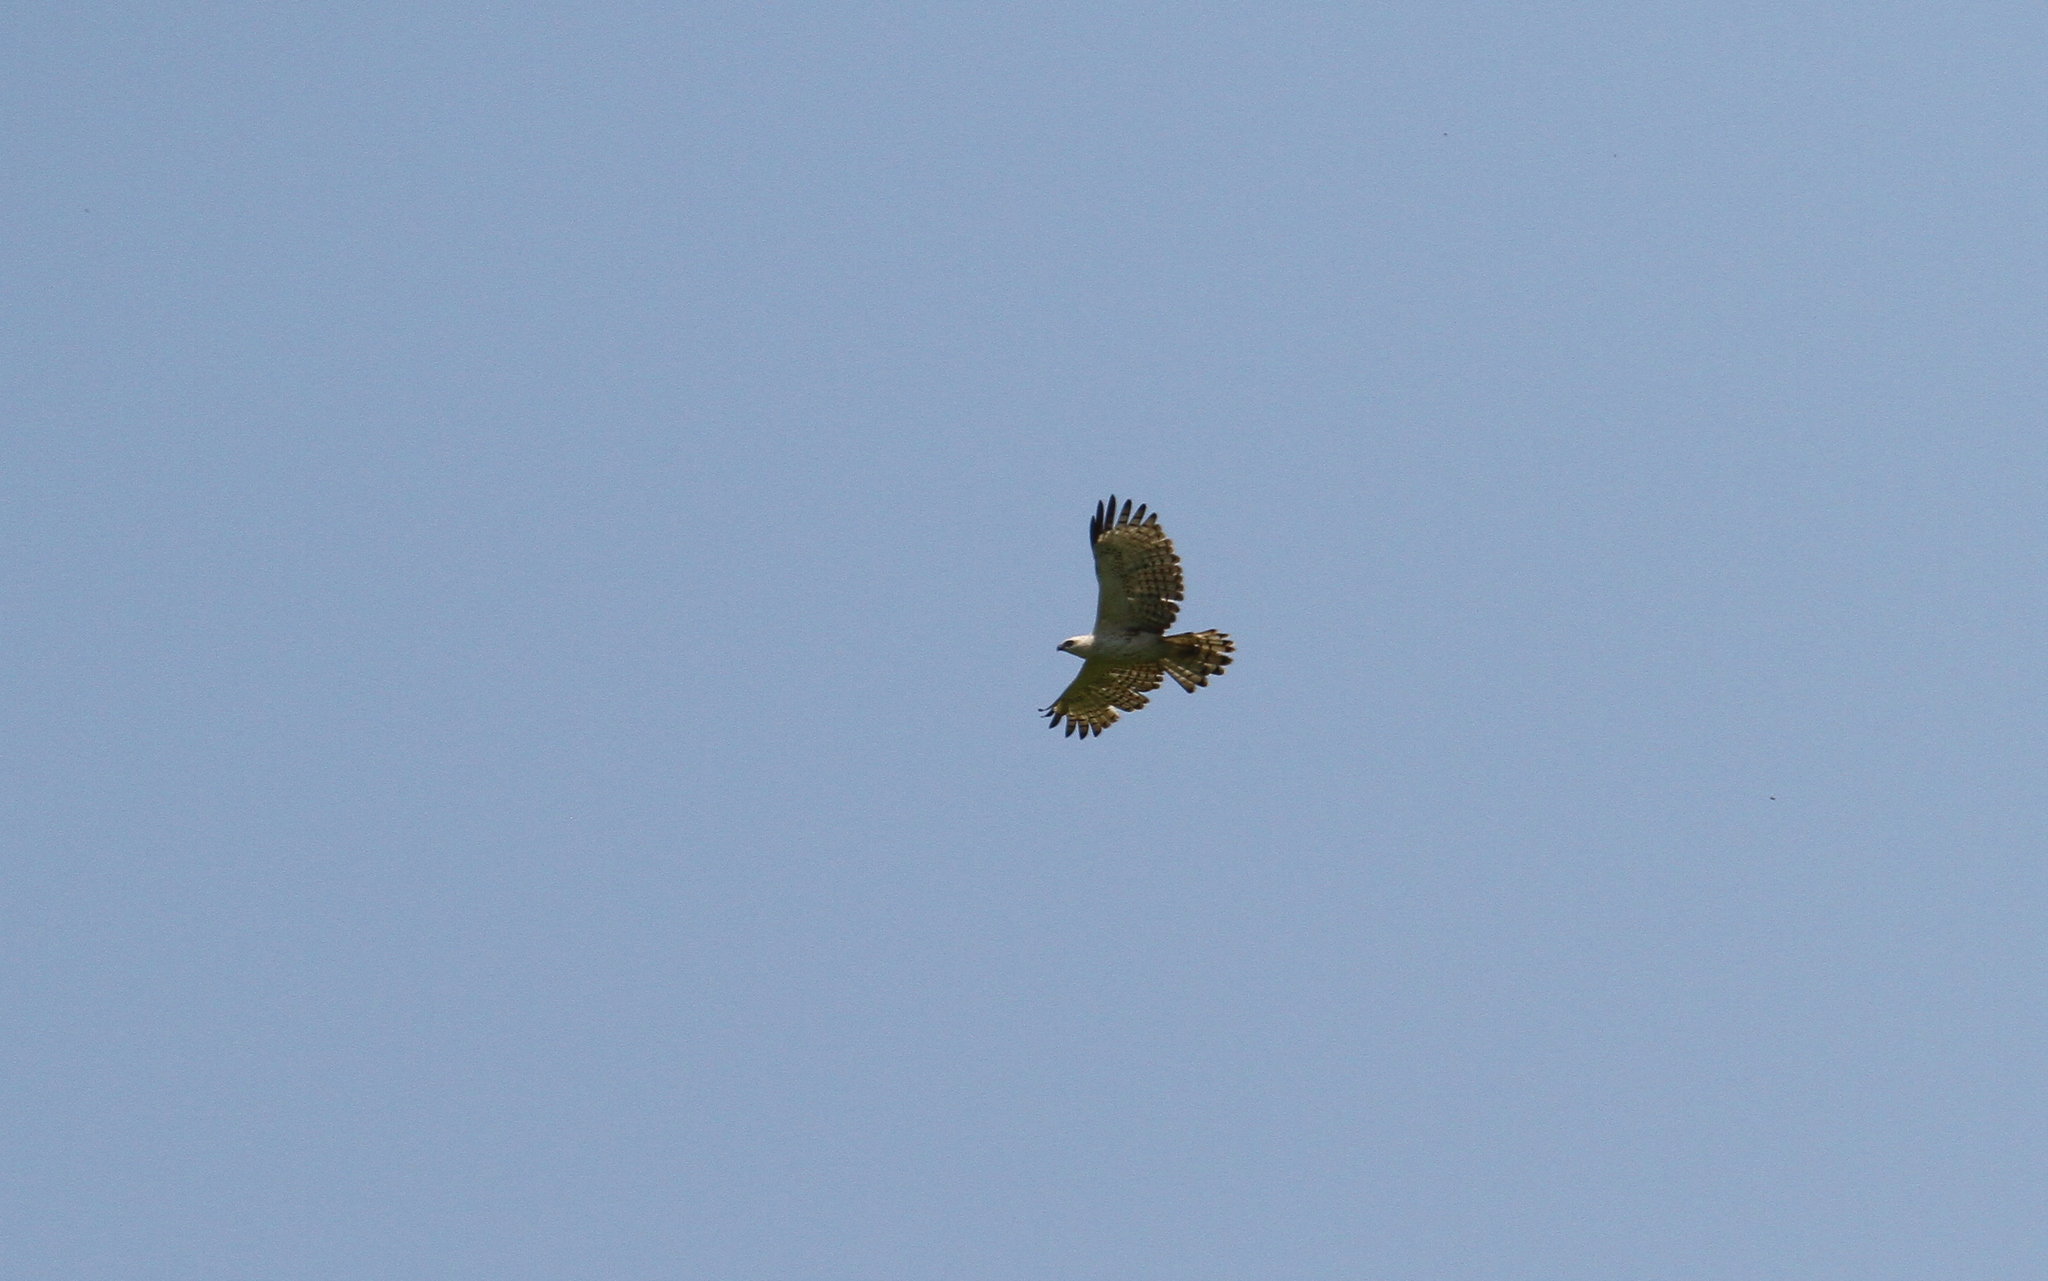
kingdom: Animalia
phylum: Chordata
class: Aves
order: Accipitriformes
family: Accipitridae
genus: Nisaetus
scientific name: Nisaetus cirrhatus
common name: Changeable hawk-eagle
